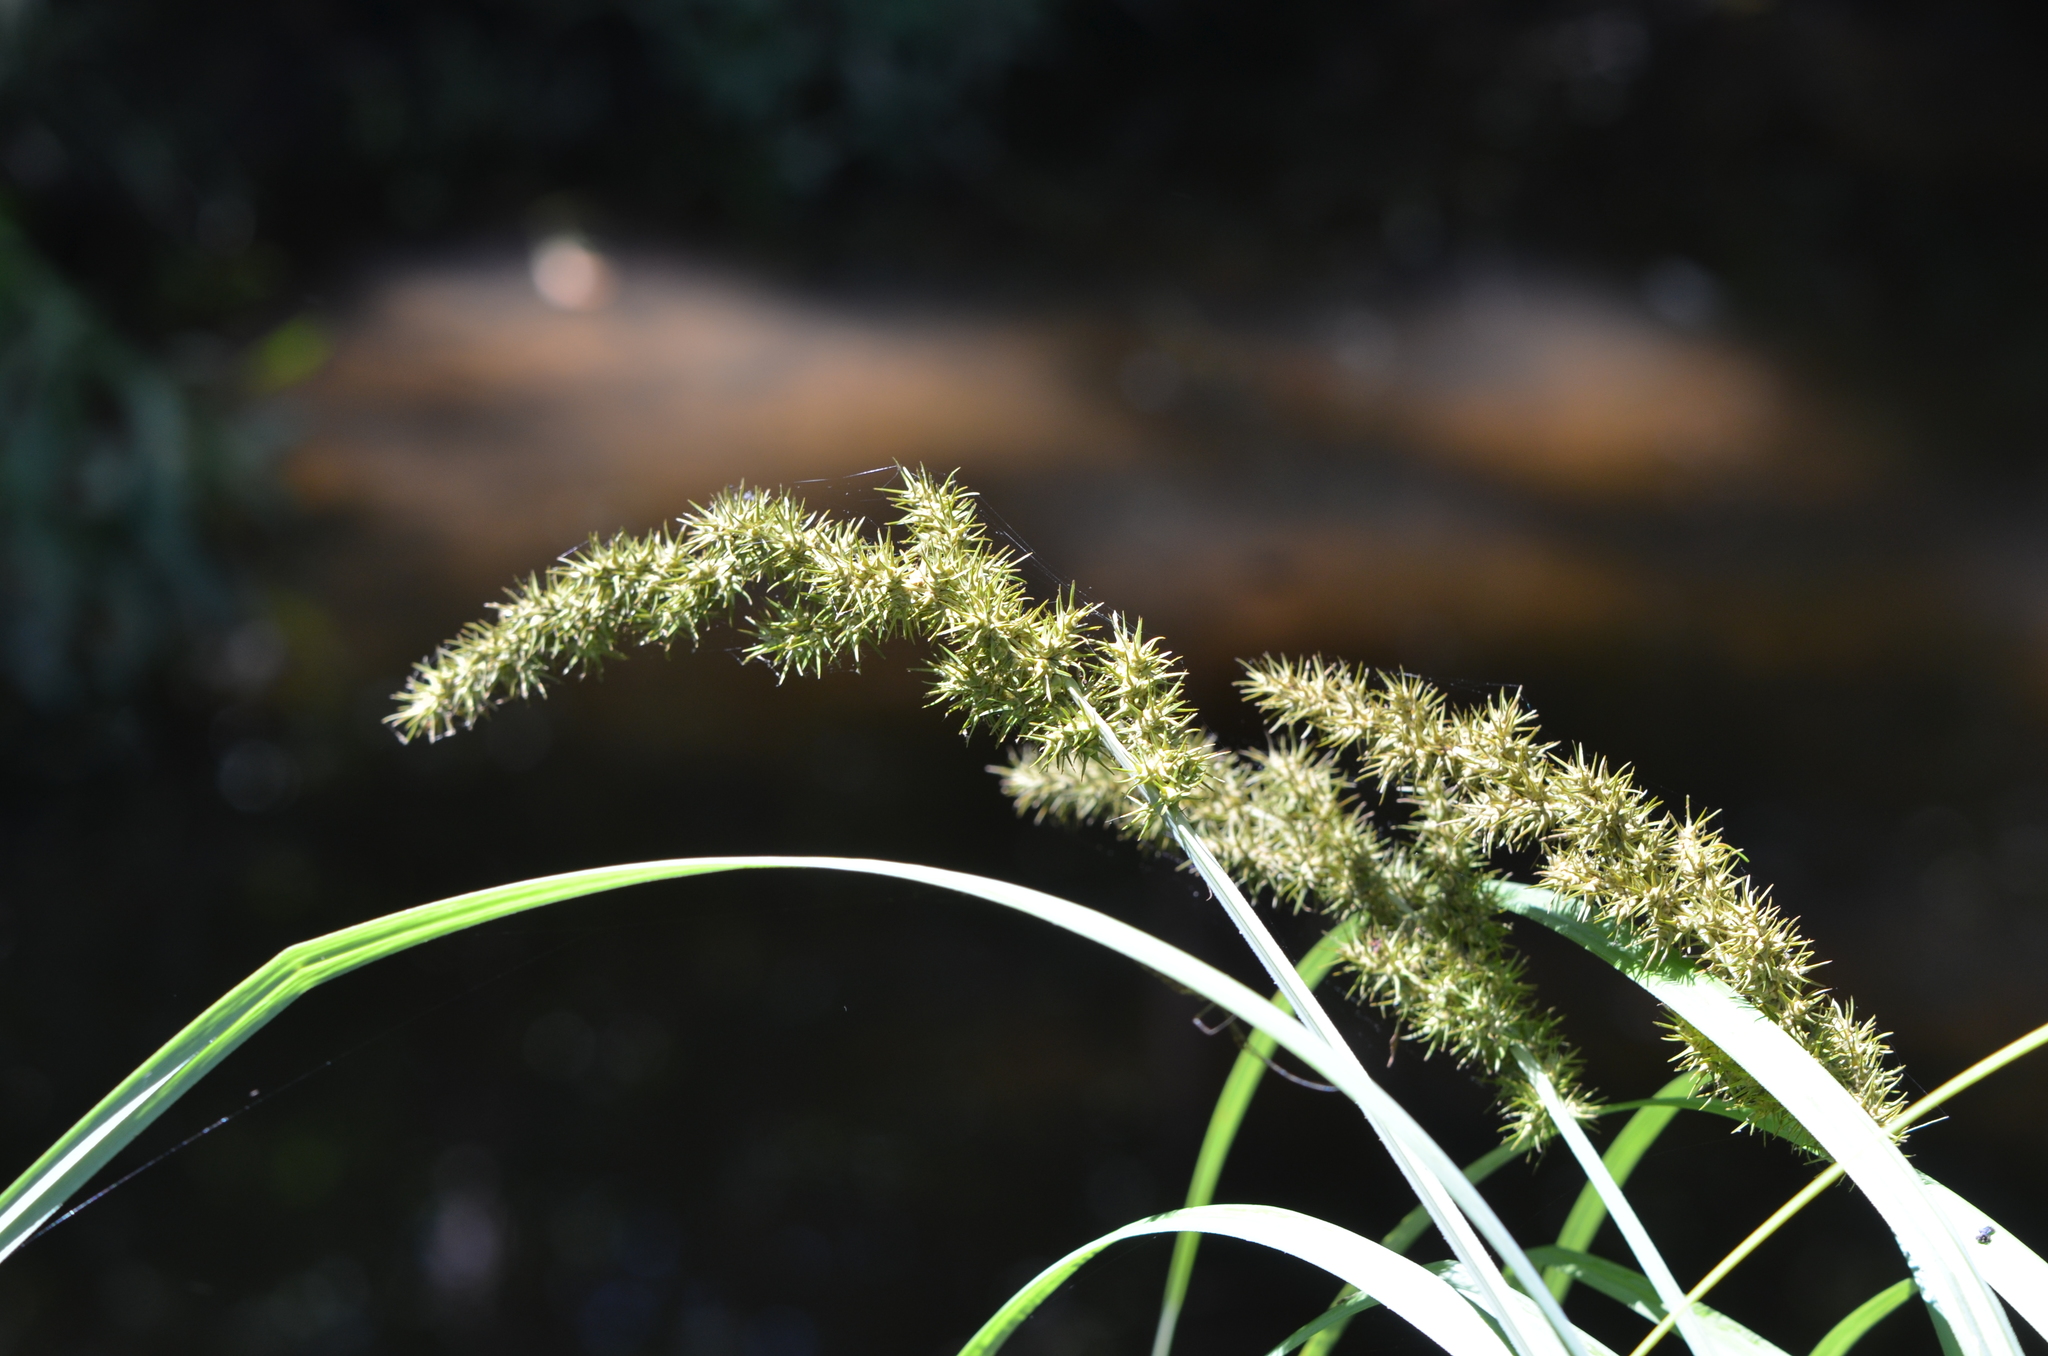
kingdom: Plantae
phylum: Tracheophyta
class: Liliopsida
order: Poales
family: Cyperaceae
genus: Carex
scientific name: Carex crus-corvi
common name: Crow-spur sedge
